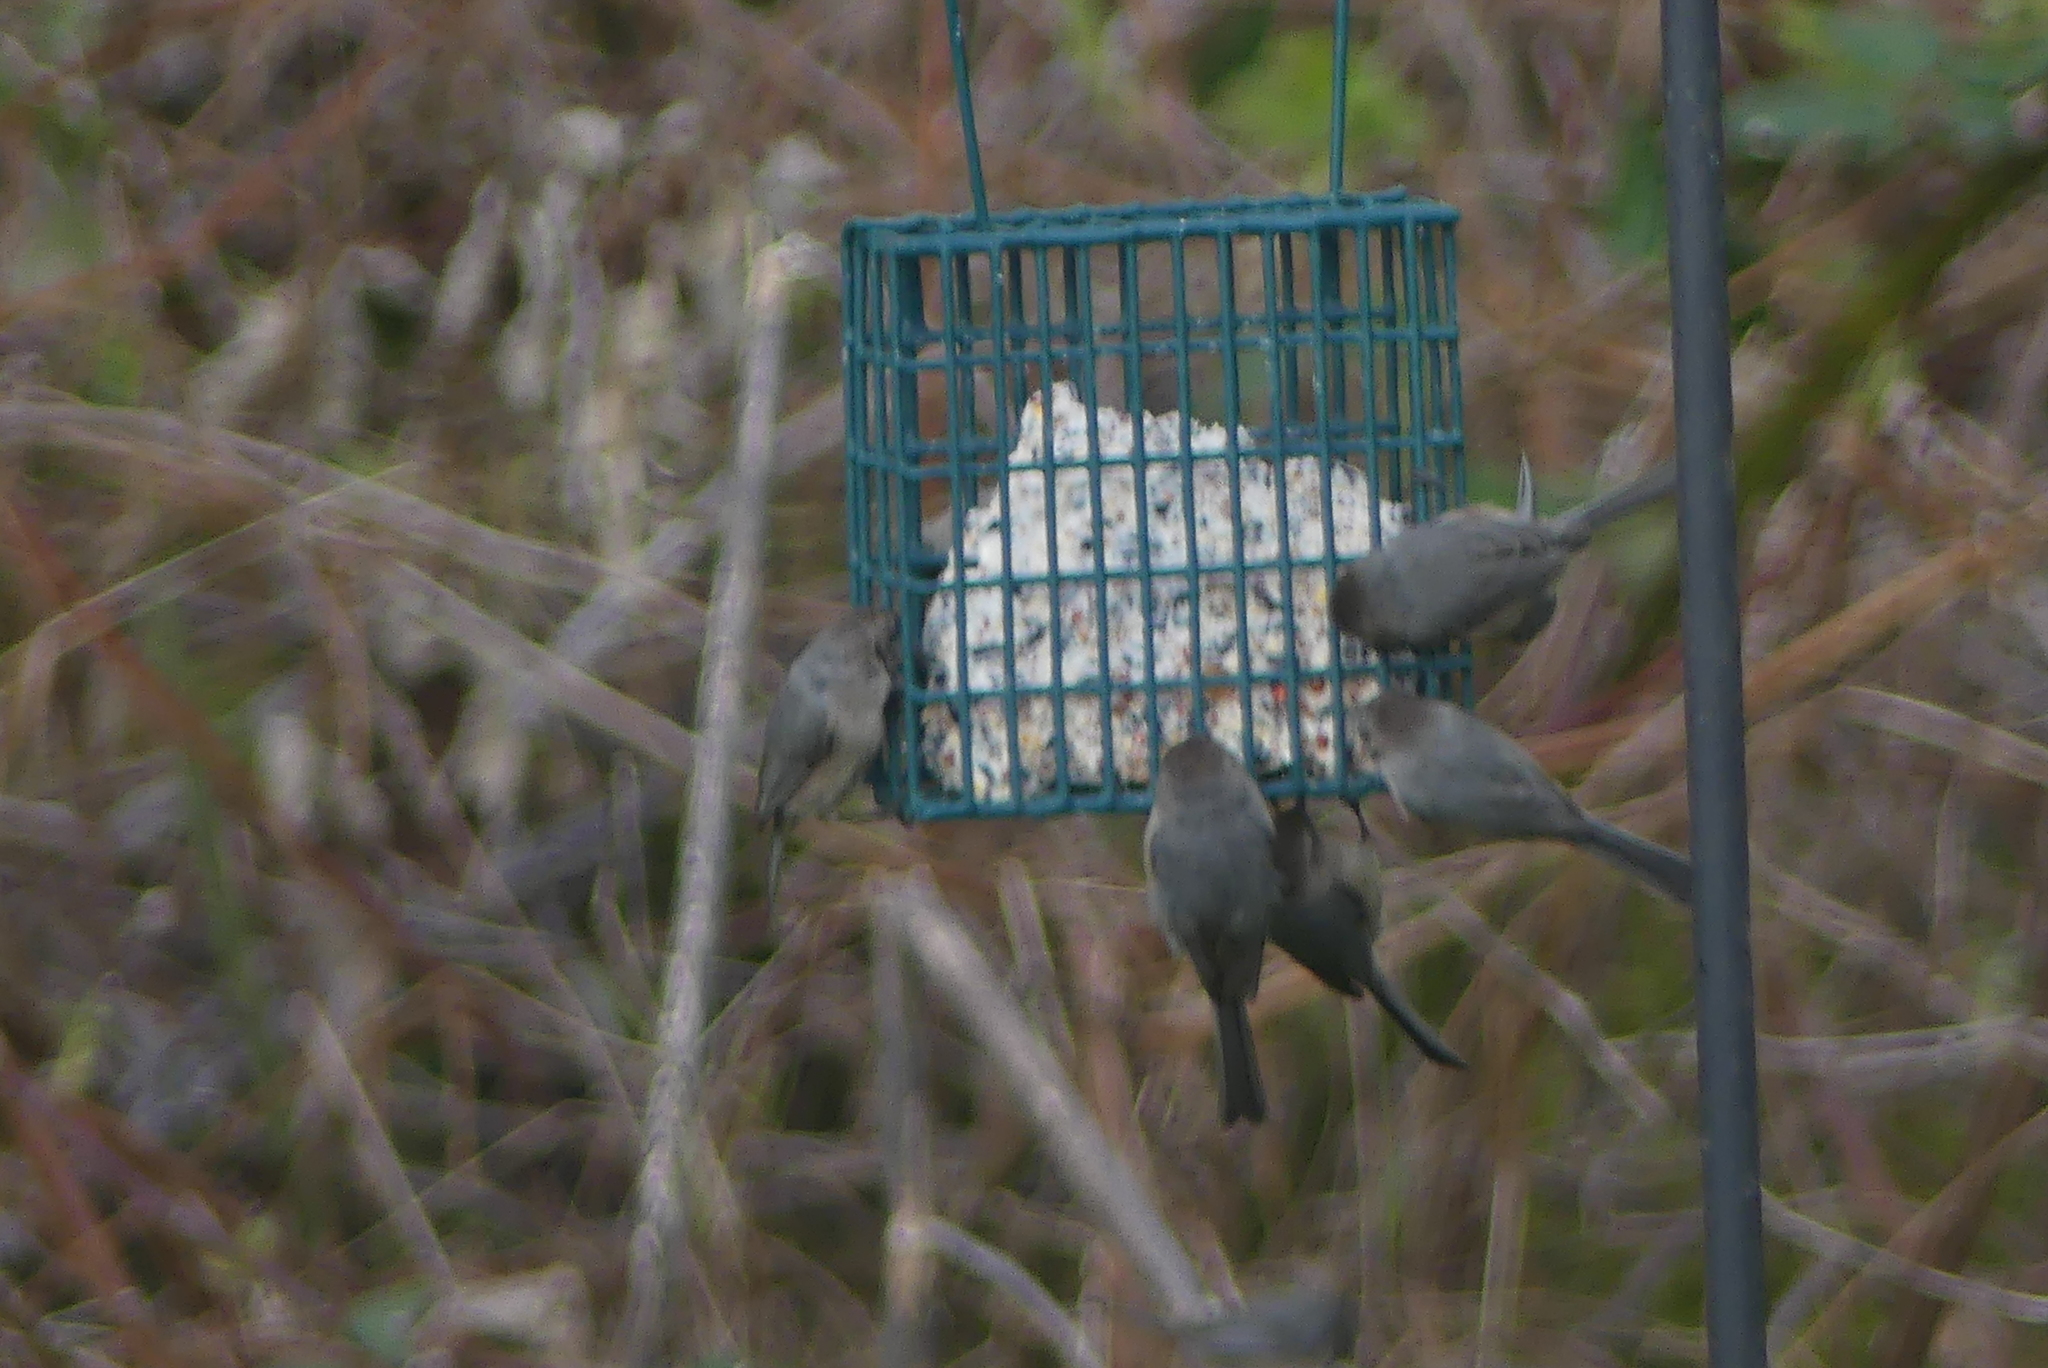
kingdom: Animalia
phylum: Chordata
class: Aves
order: Passeriformes
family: Aegithalidae
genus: Psaltriparus
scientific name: Psaltriparus minimus
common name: American bushtit
